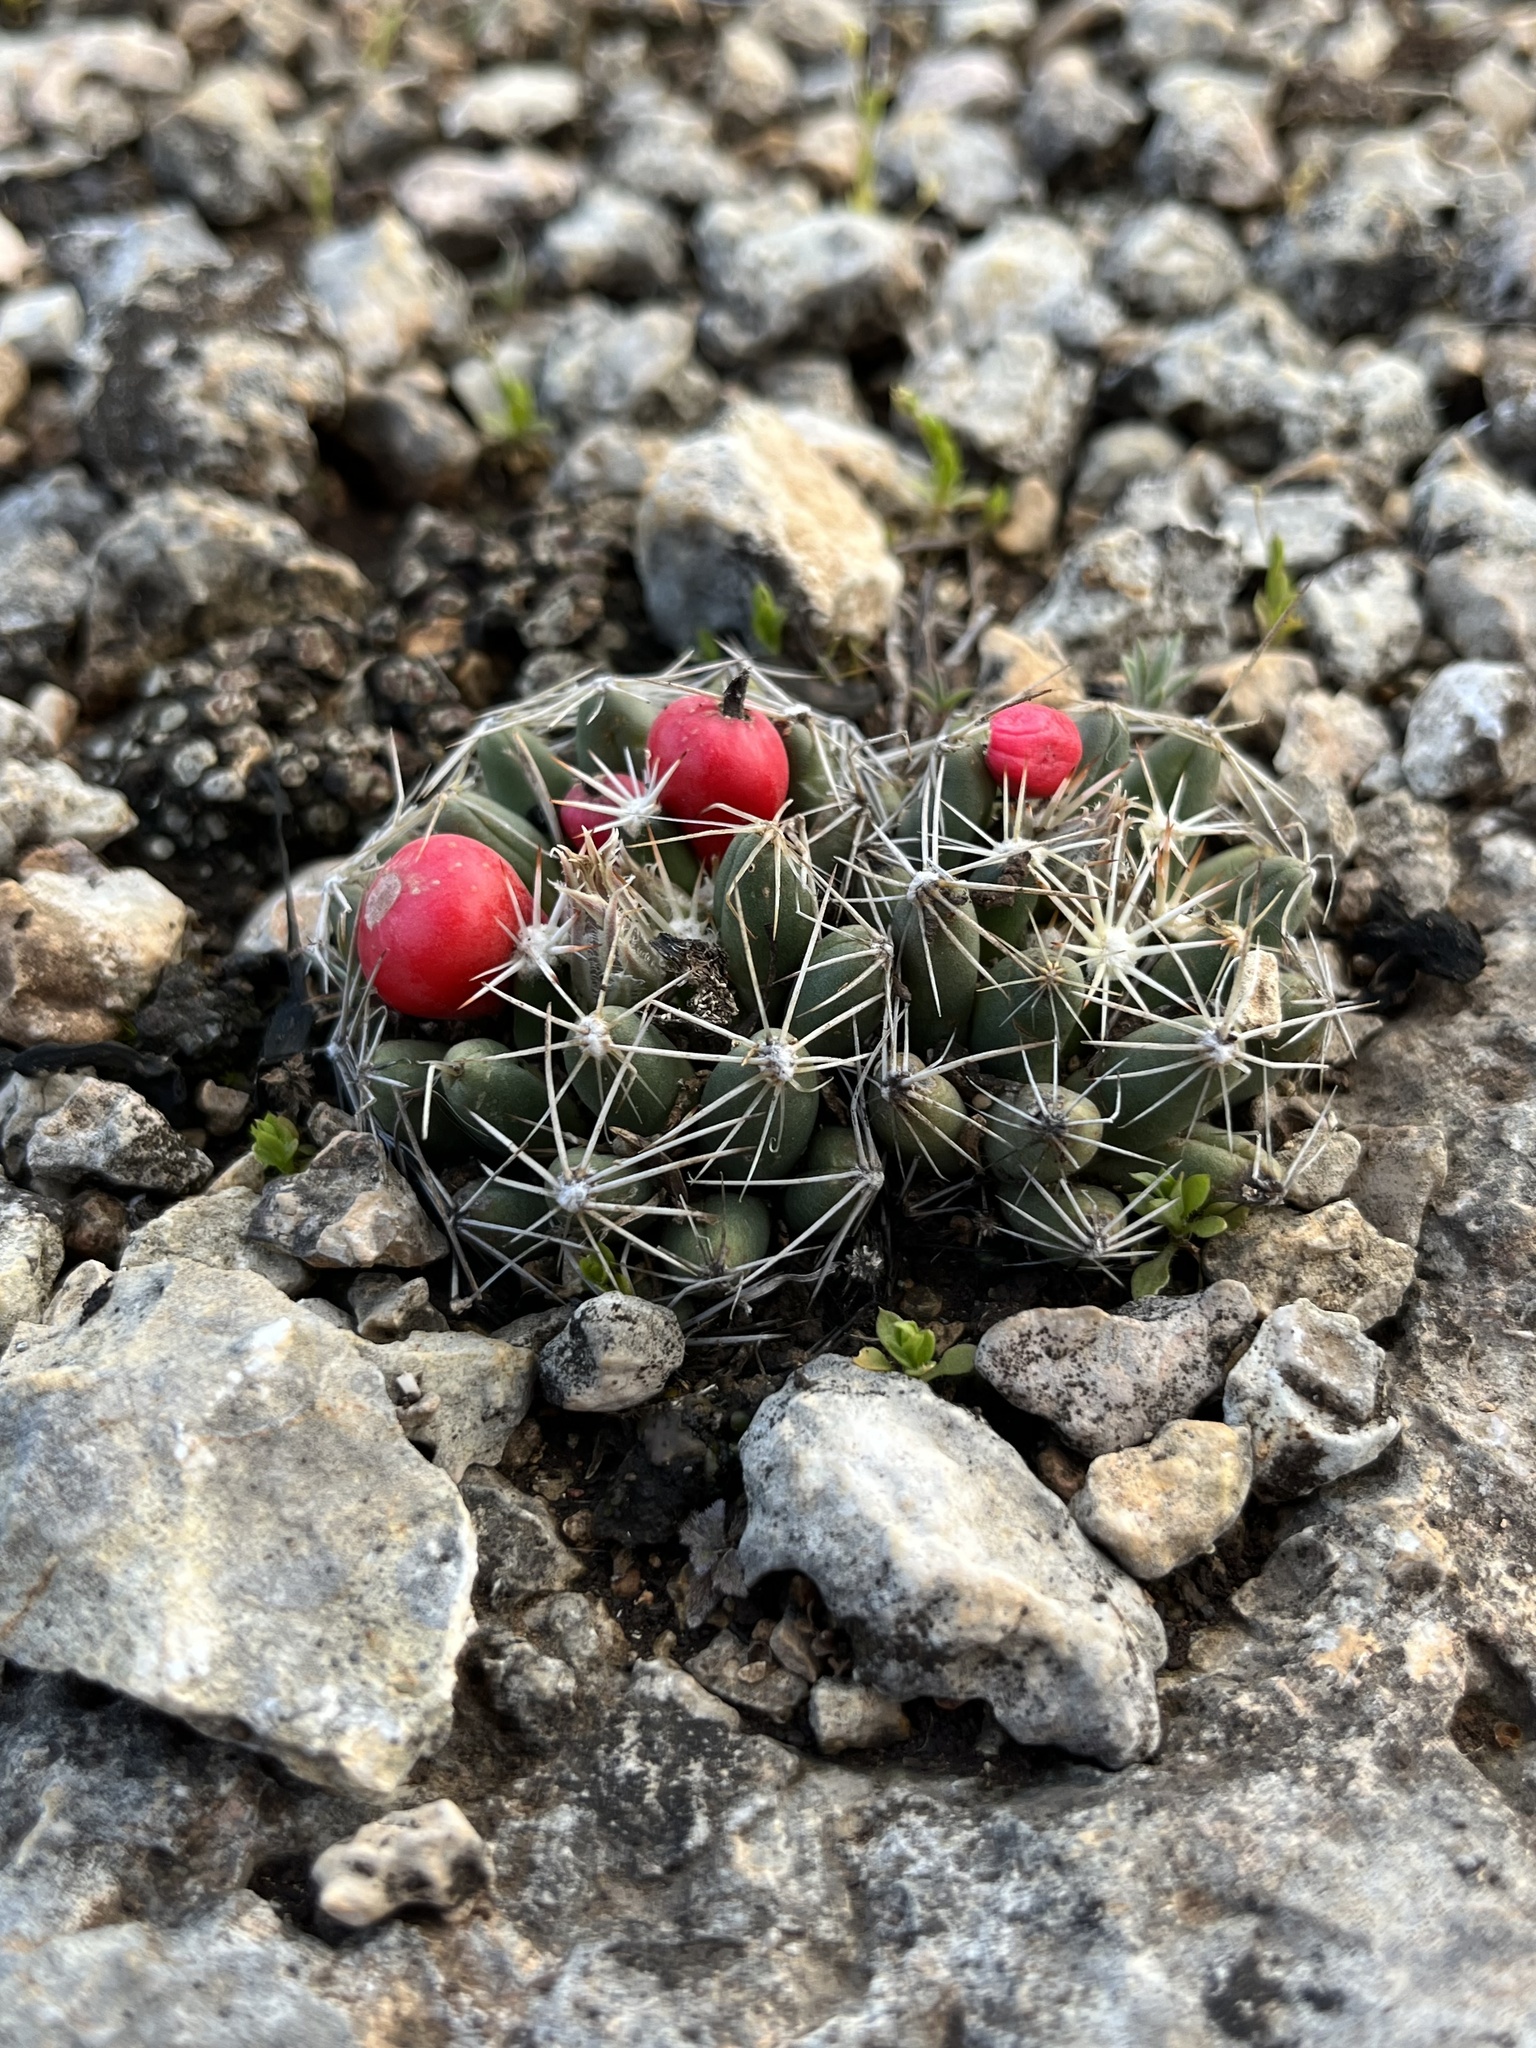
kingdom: Plantae
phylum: Tracheophyta
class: Magnoliopsida
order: Caryophyllales
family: Cactaceae
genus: Pelecyphora
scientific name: Pelecyphora missouriensis
